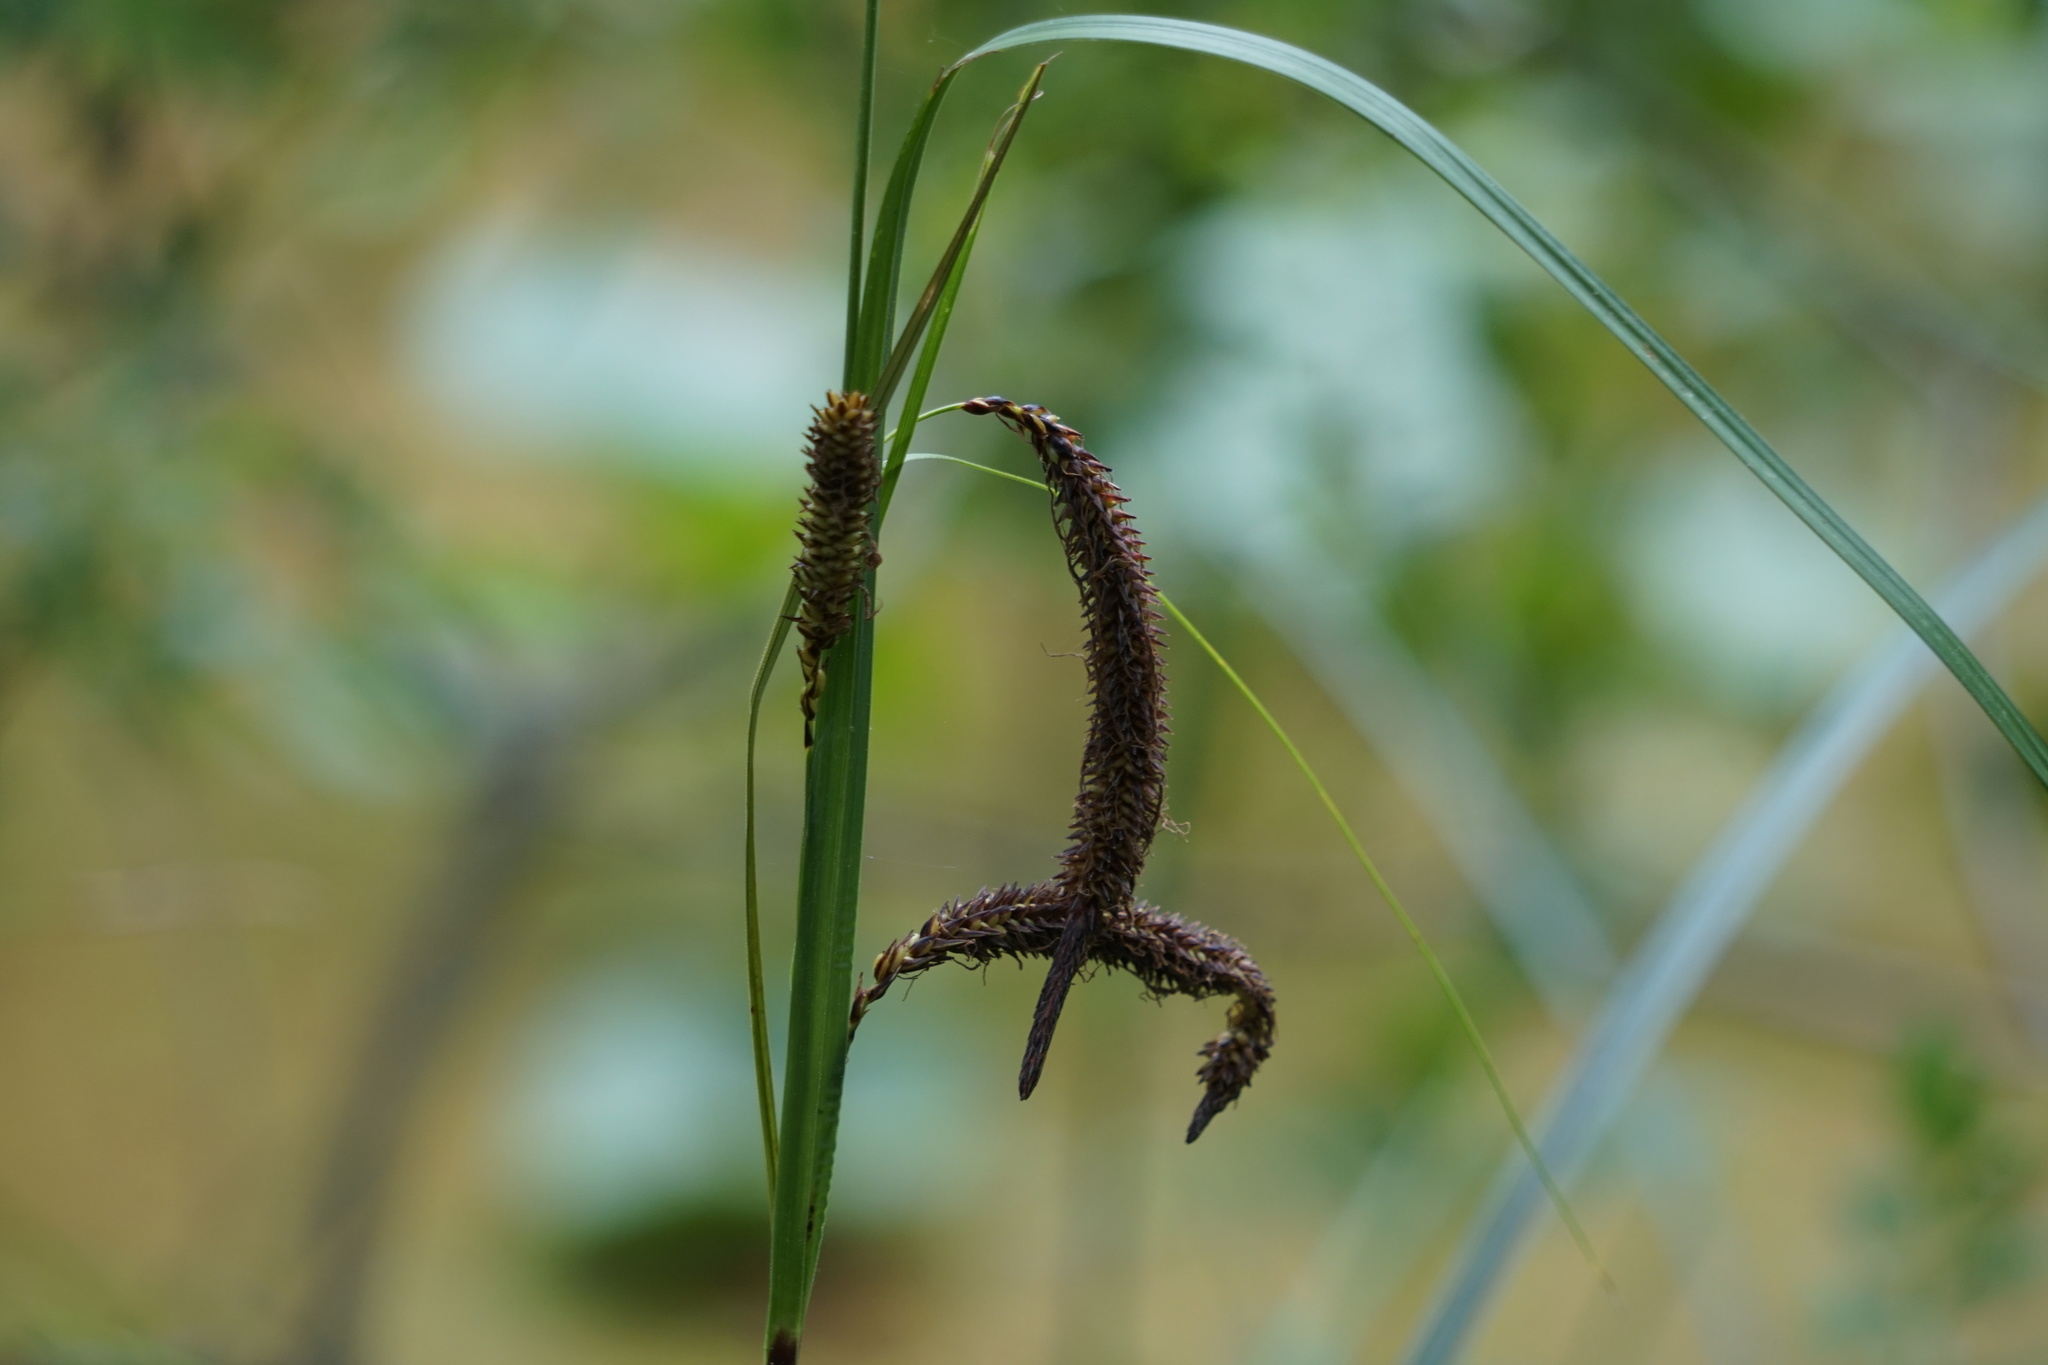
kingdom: Plantae
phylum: Tracheophyta
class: Liliopsida
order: Poales
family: Cyperaceae
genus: Carex
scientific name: Carex obnupta
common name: Slough sedge
